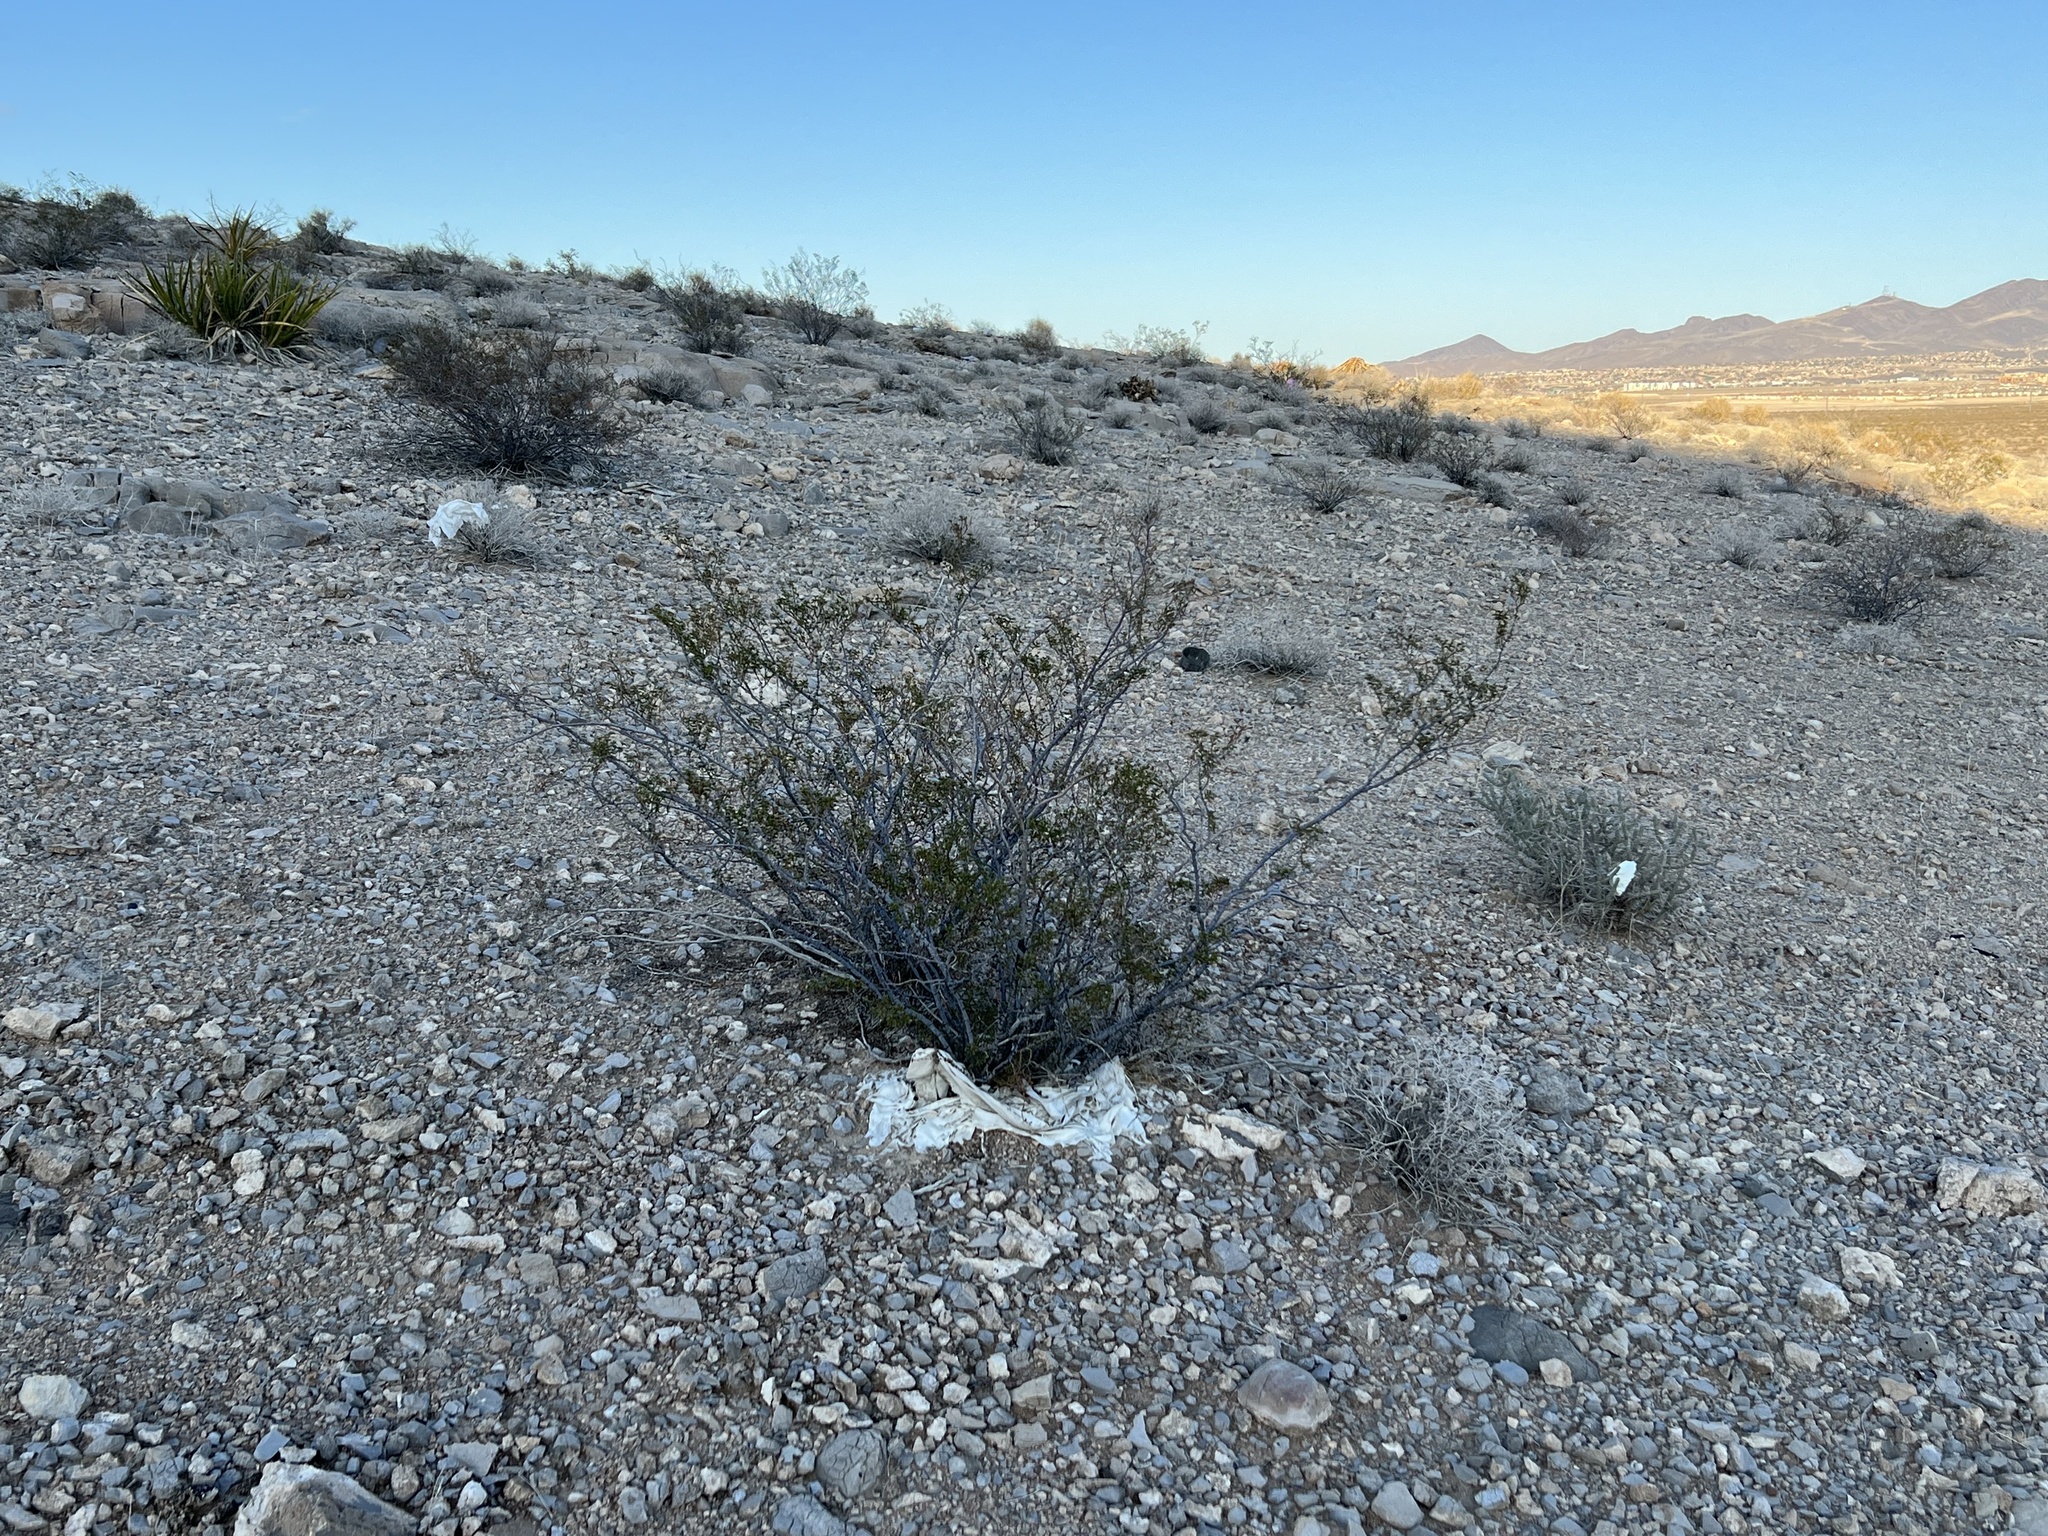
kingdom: Plantae
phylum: Tracheophyta
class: Magnoliopsida
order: Zygophyllales
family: Zygophyllaceae
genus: Larrea
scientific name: Larrea tridentata
